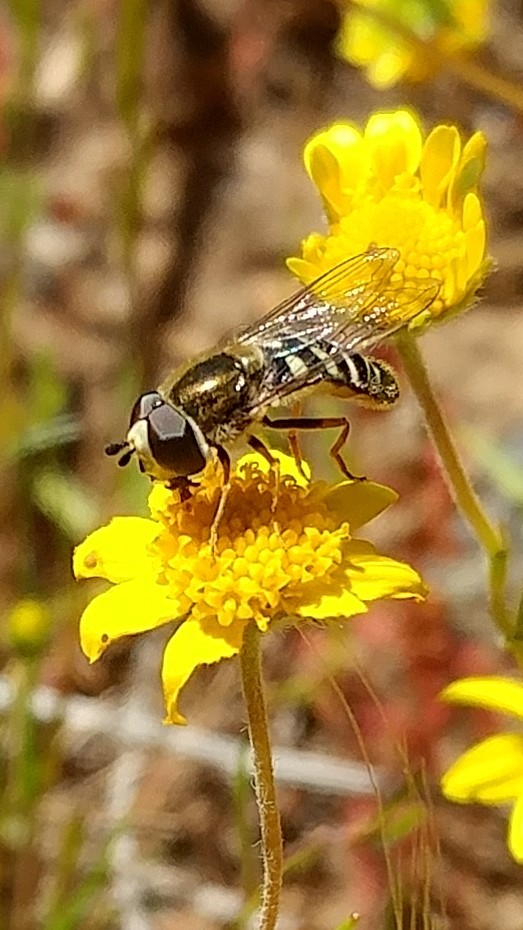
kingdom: Animalia
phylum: Arthropoda
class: Insecta
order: Diptera
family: Syrphidae
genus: Eupeodes
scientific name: Eupeodes volucris
